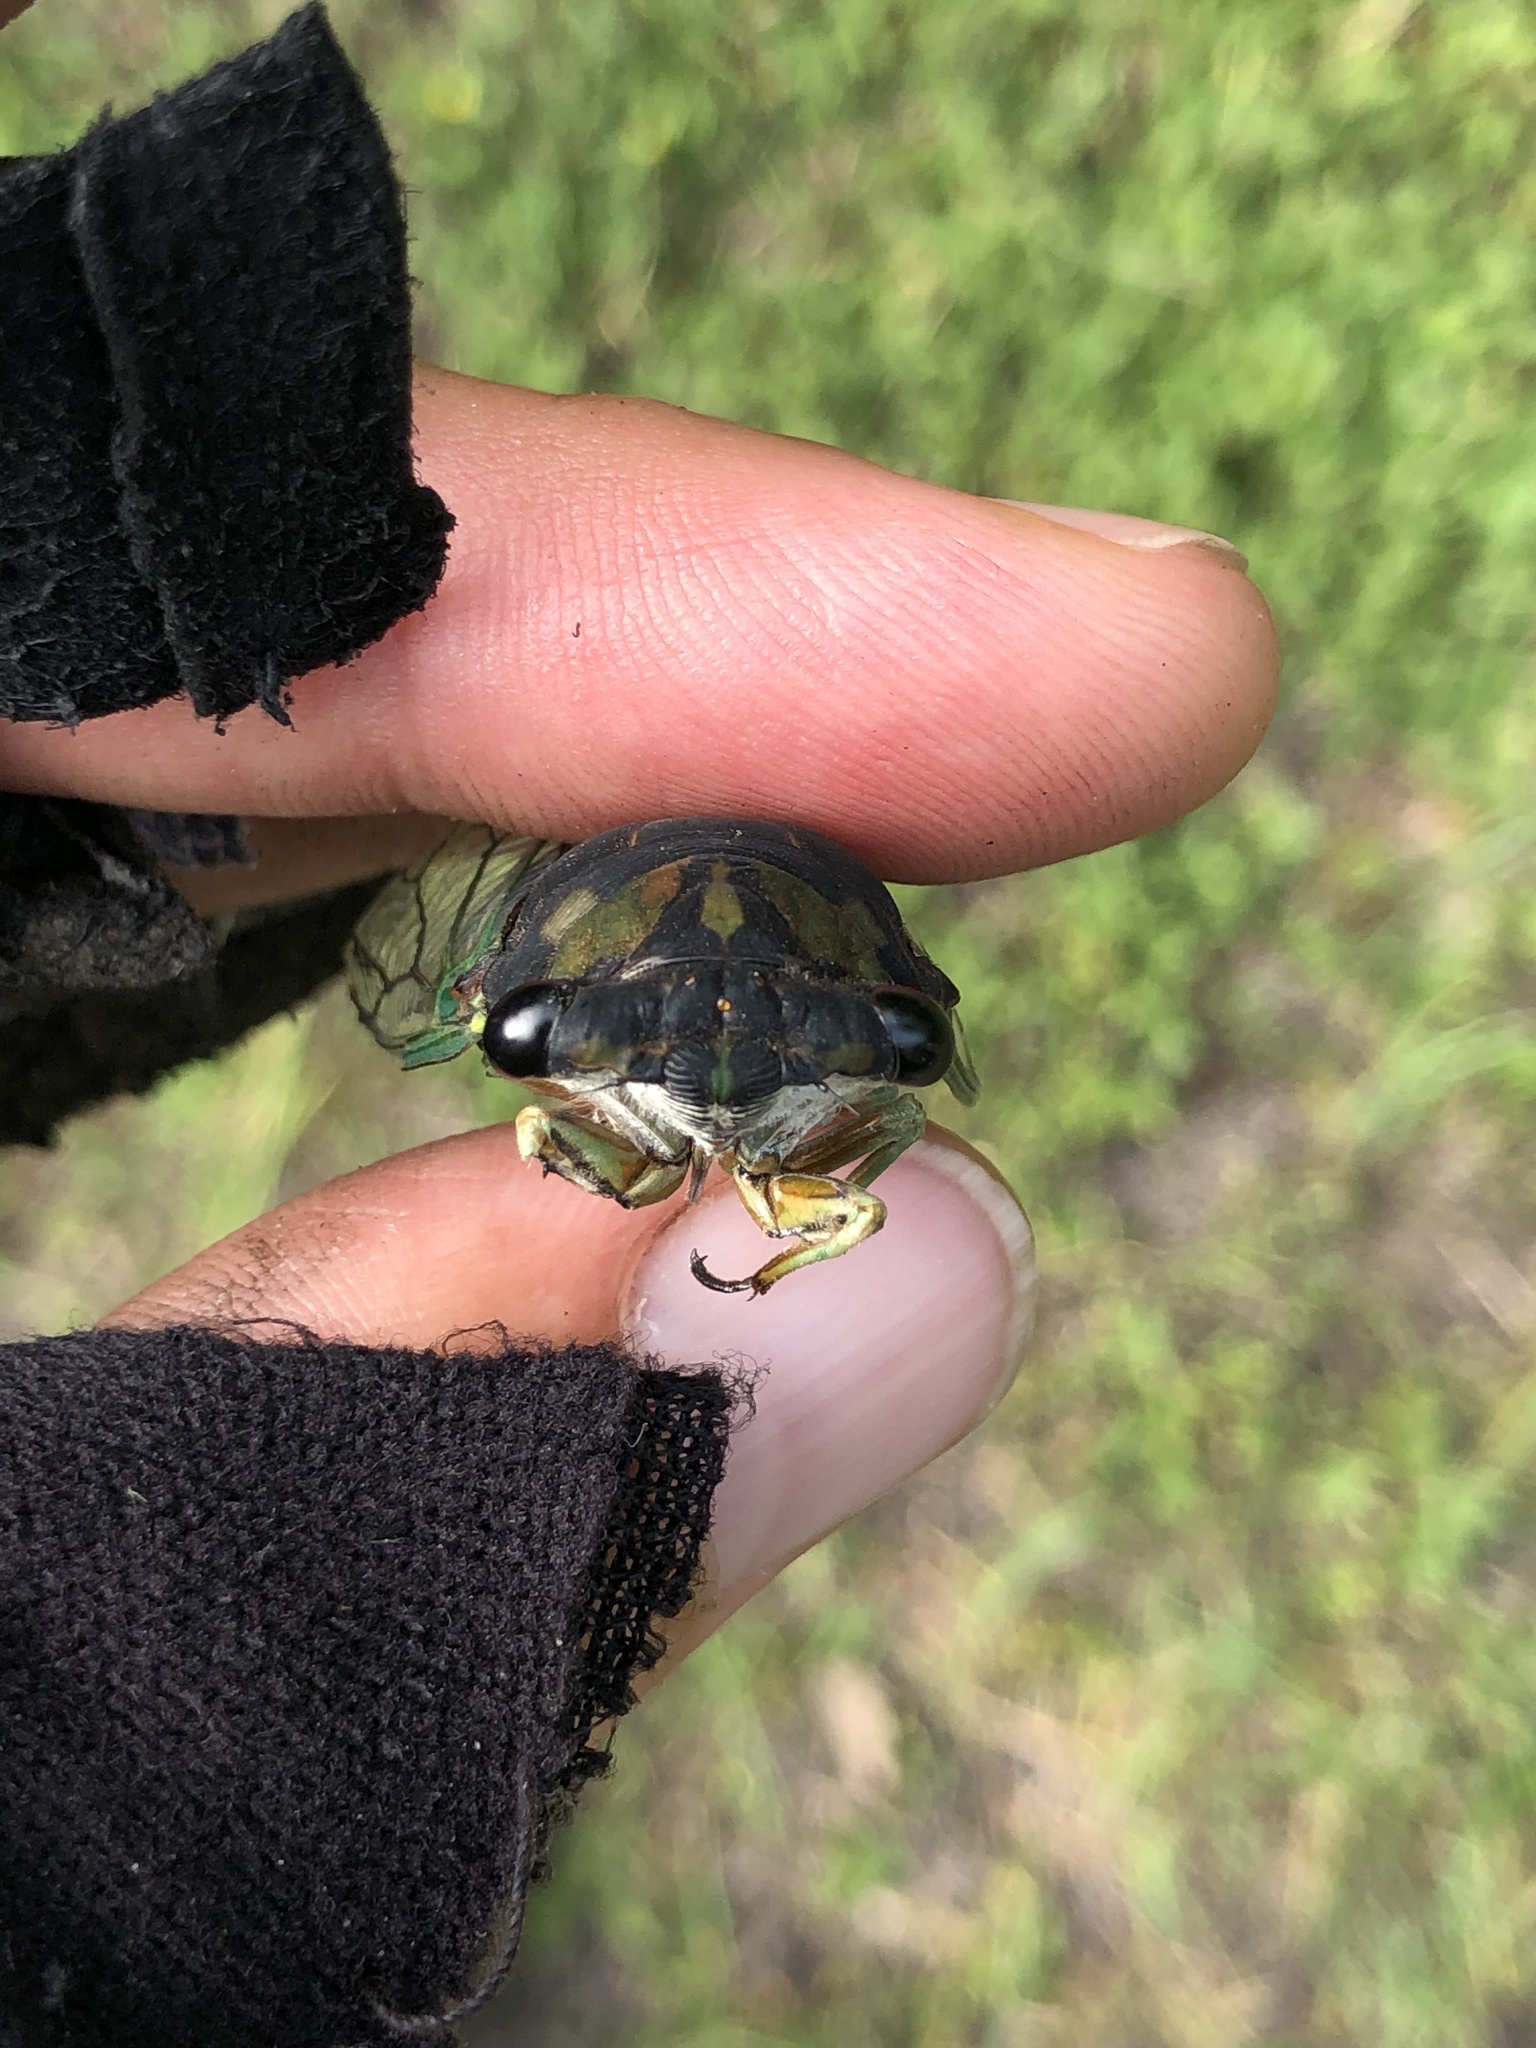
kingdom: Animalia
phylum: Arthropoda
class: Insecta
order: Hemiptera
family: Cicadidae
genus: Neotibicen
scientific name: Neotibicen tibicen
